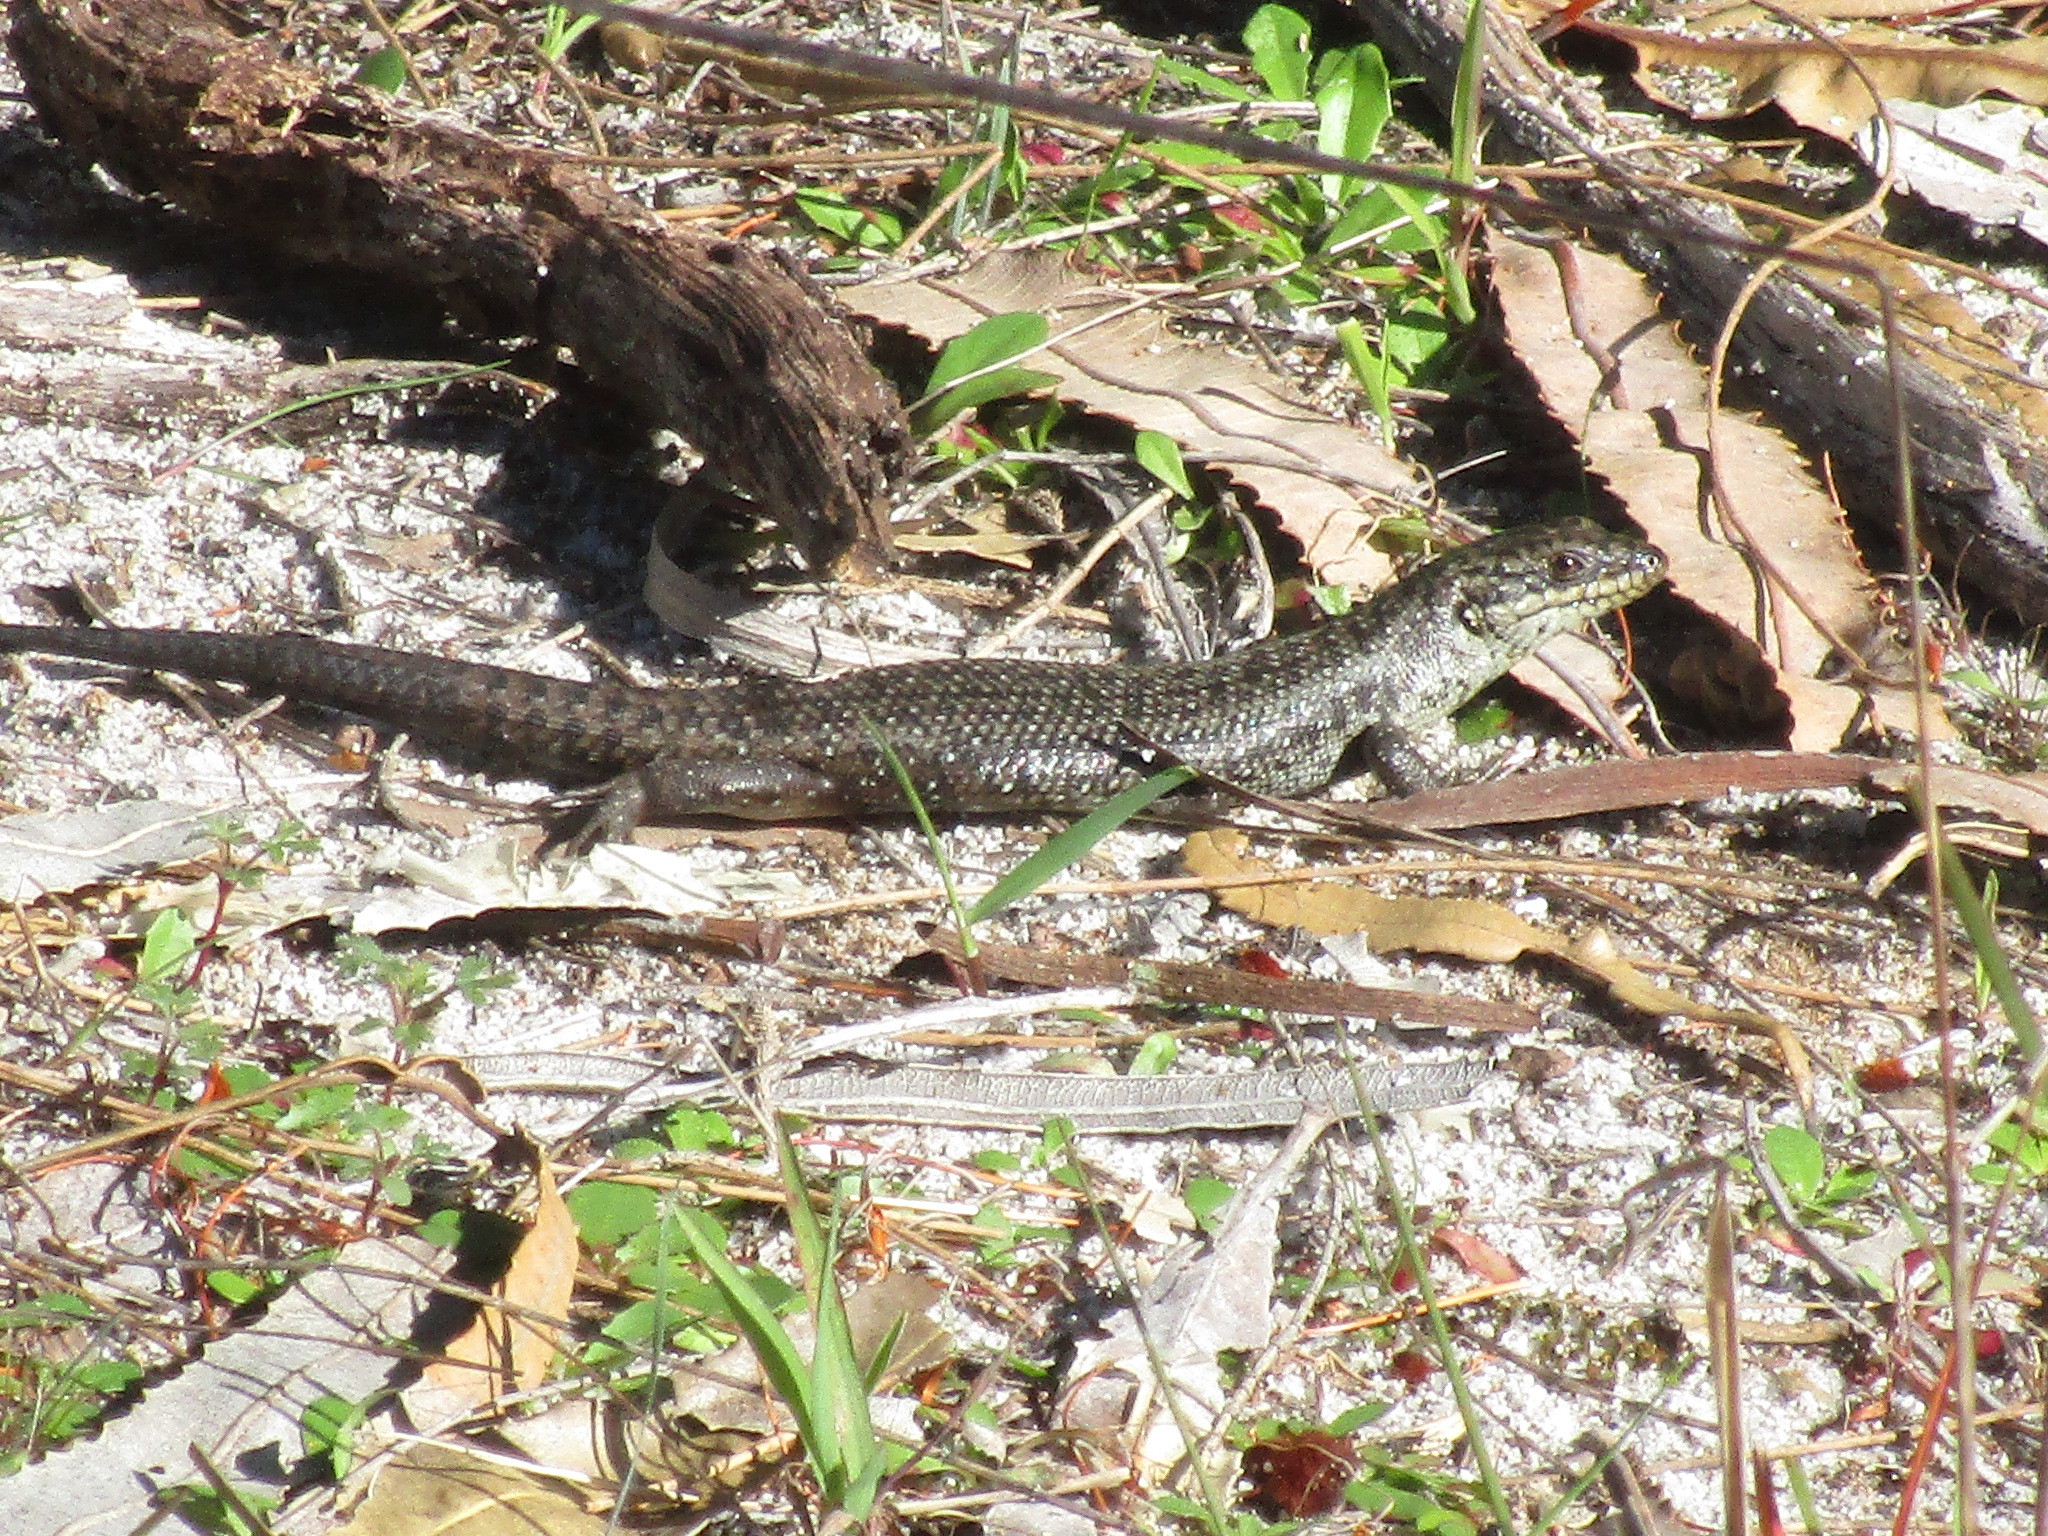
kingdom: Animalia
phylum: Chordata
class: Squamata
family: Scincidae
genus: Egernia
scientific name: Egernia napoleonis
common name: South-western crevice skink
